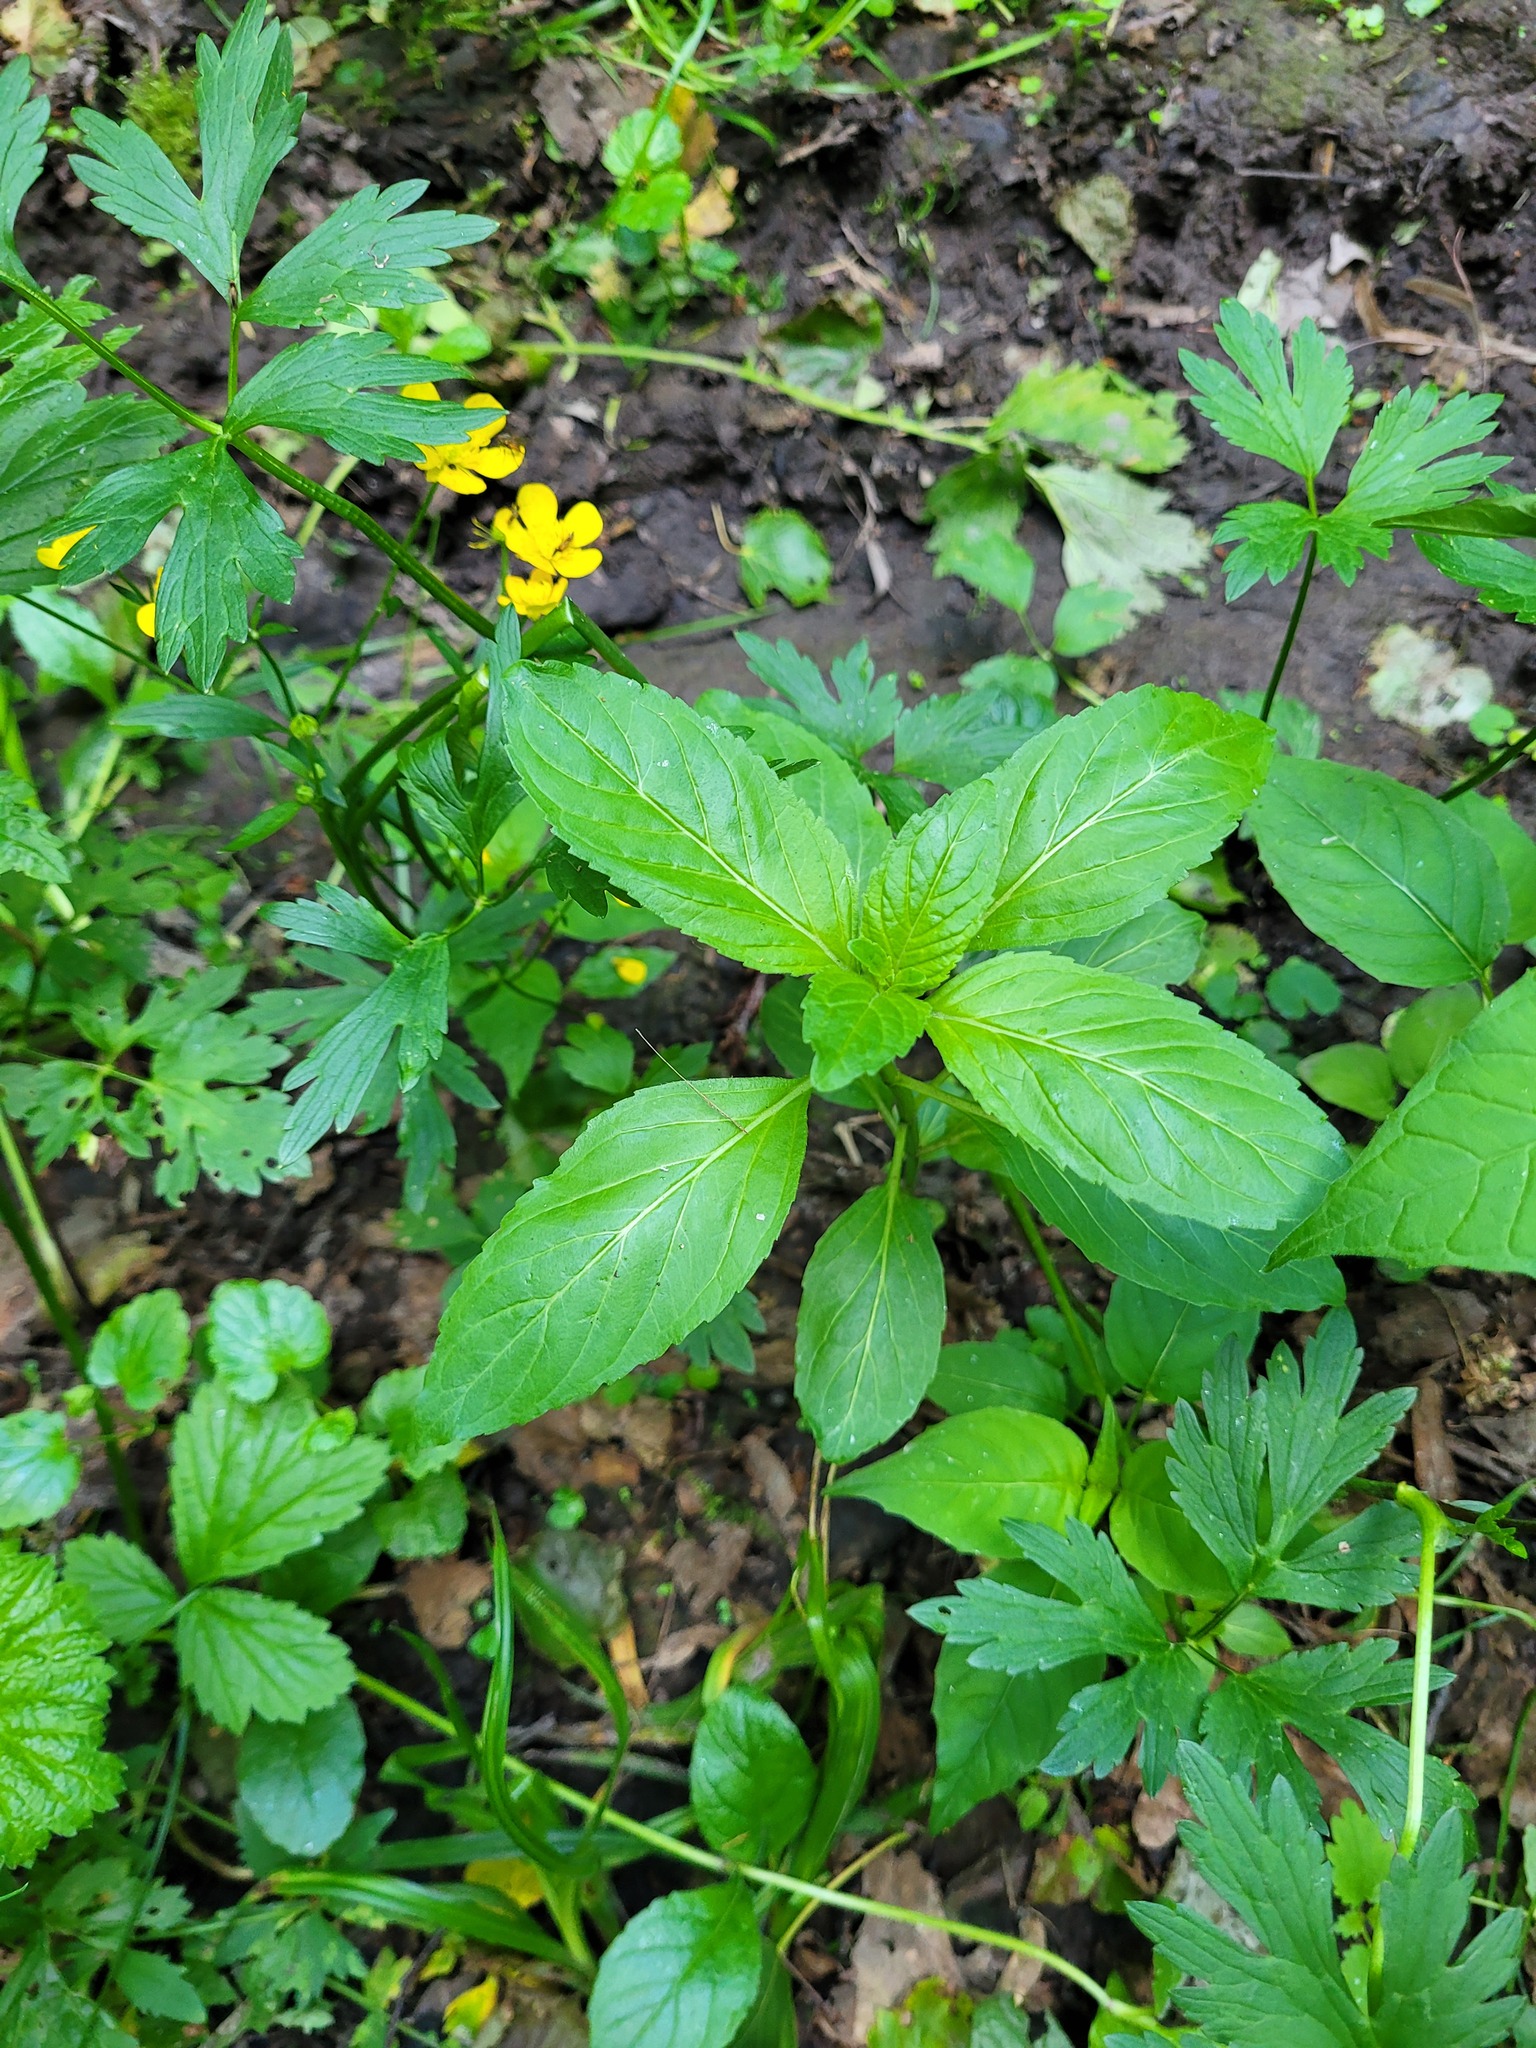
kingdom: Plantae
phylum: Tracheophyta
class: Magnoliopsida
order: Lamiales
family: Lamiaceae
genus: Mentha
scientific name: Mentha arvensis
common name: Corn mint
